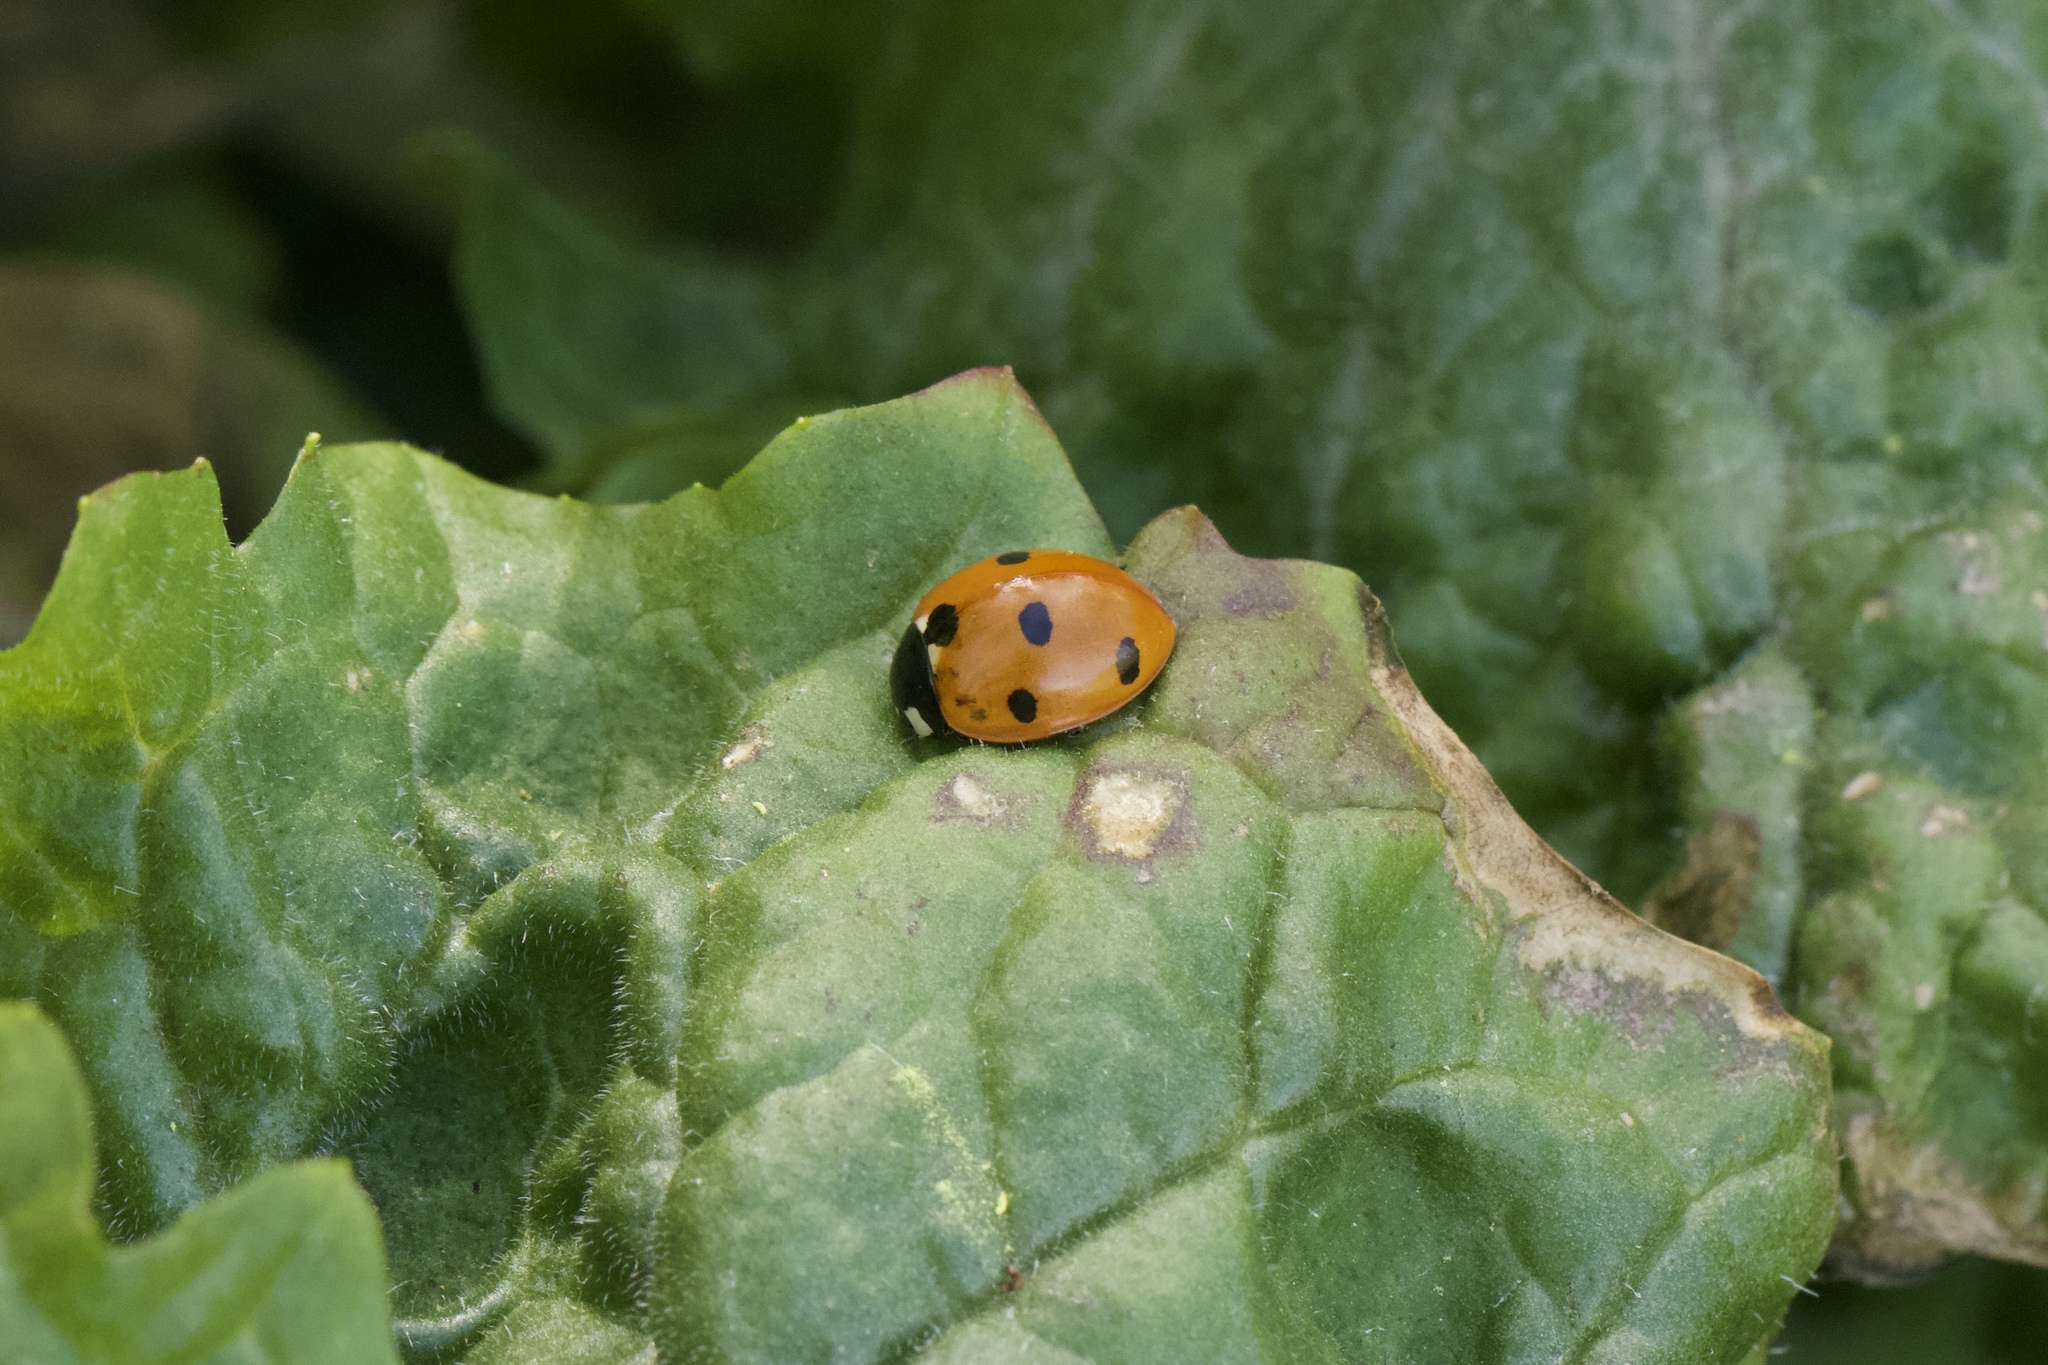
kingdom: Animalia
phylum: Arthropoda
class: Insecta
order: Coleoptera
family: Coccinellidae
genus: Coccinella
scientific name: Coccinella septempunctata
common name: Sevenspotted lady beetle
